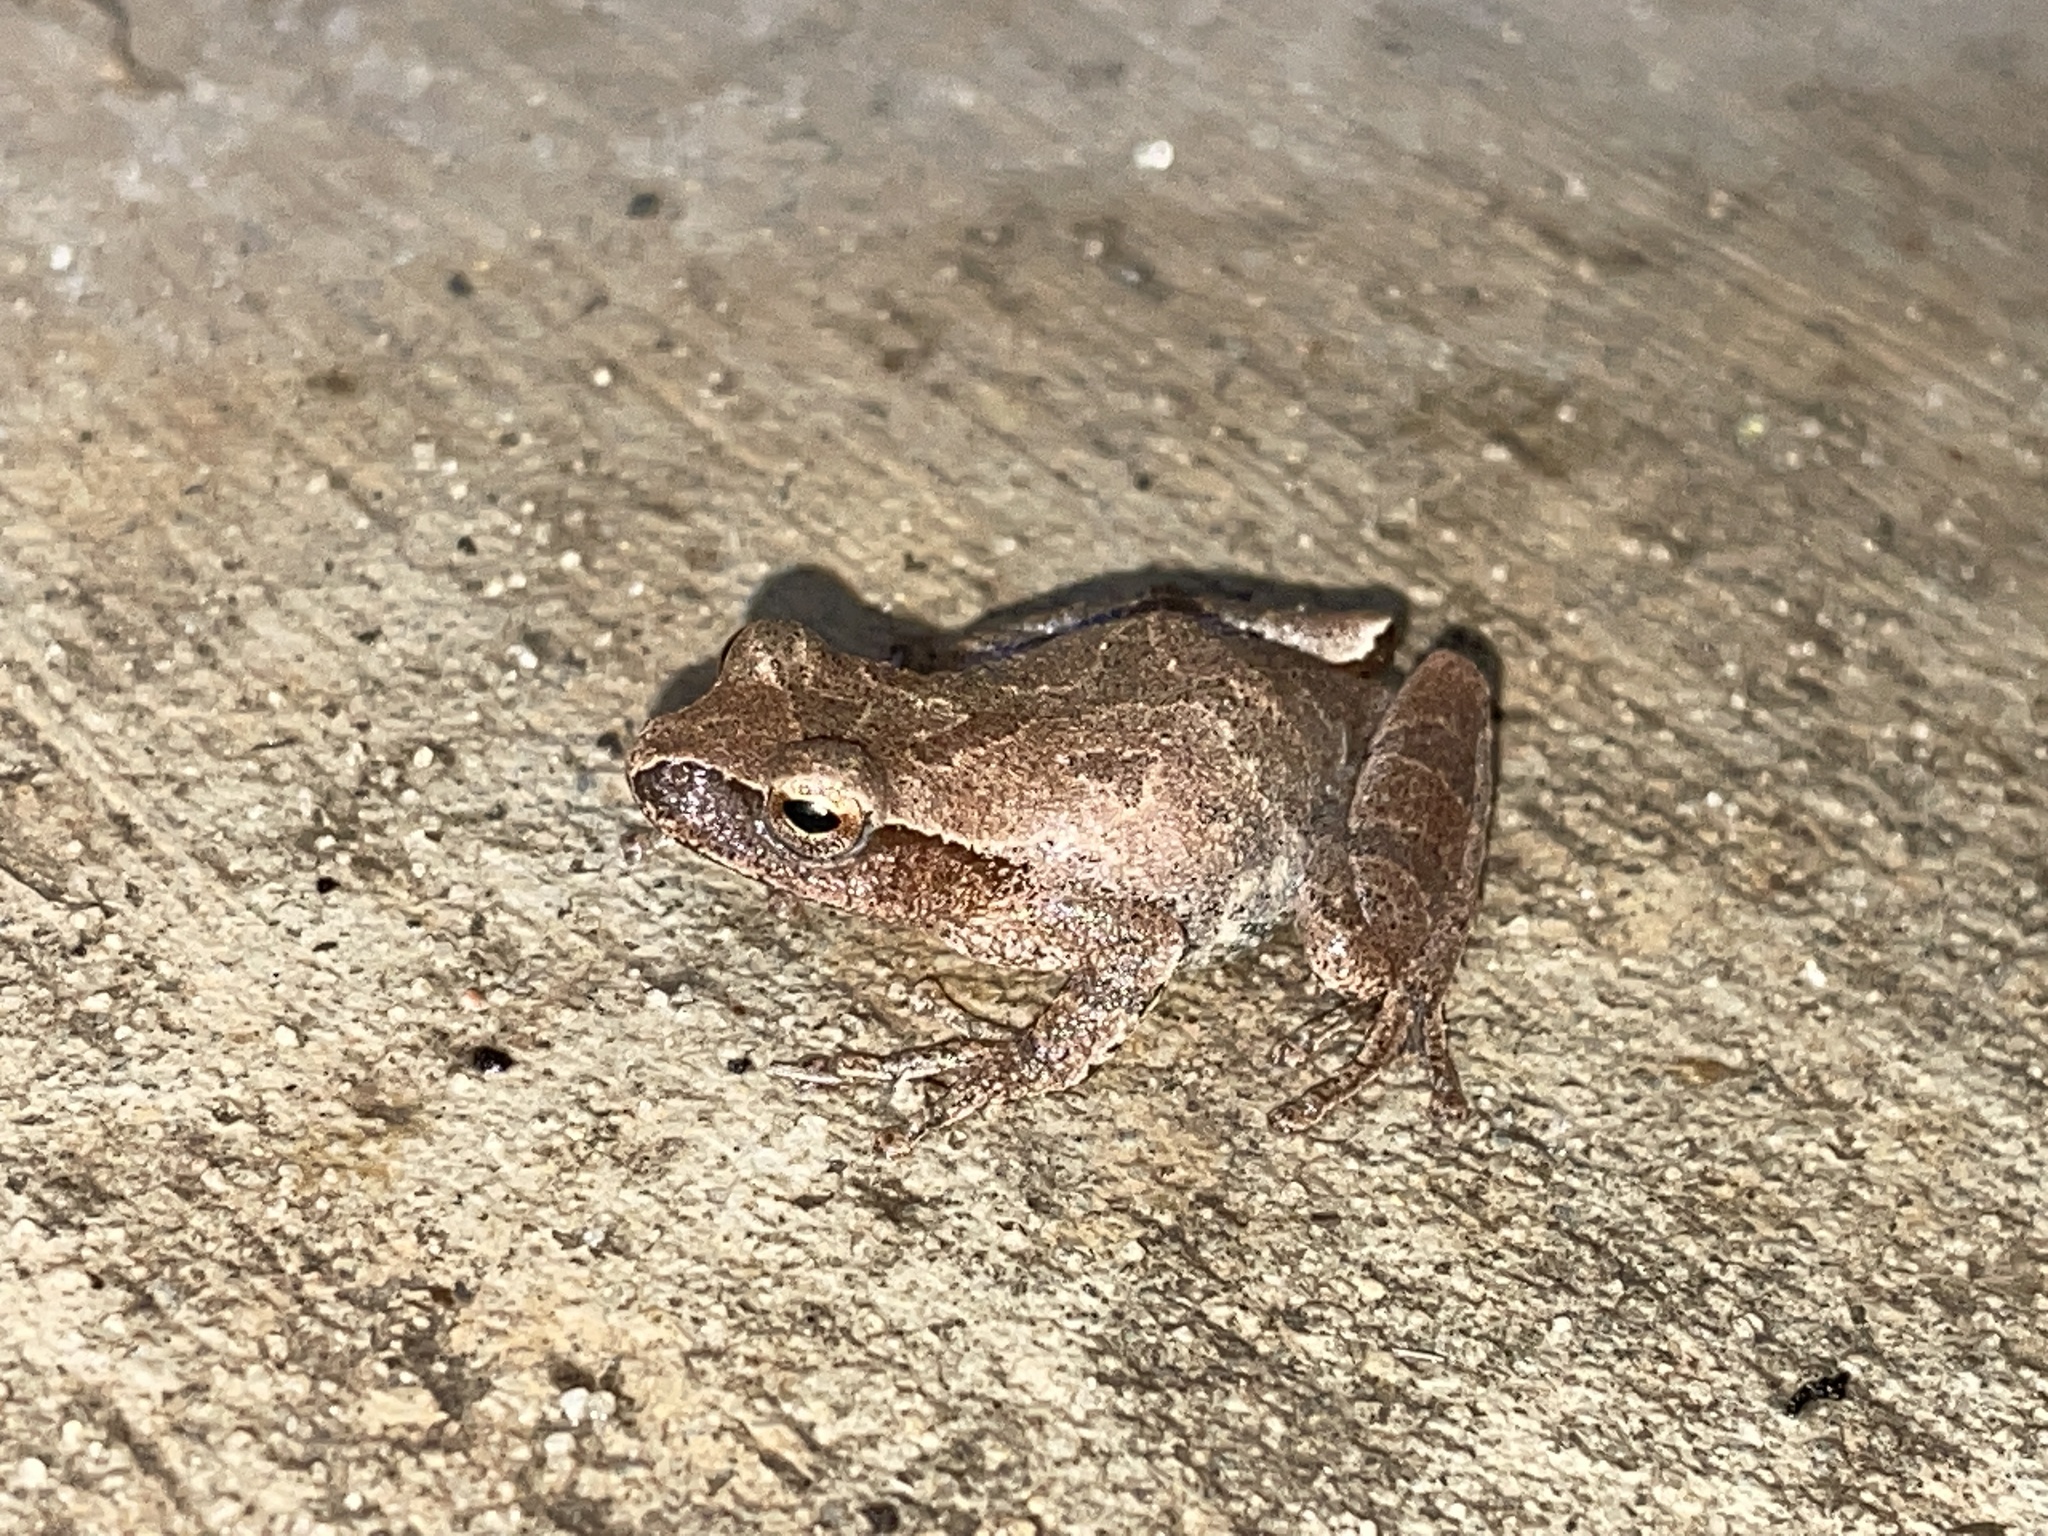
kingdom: Animalia
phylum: Chordata
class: Amphibia
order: Anura
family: Hylidae
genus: Pseudacris
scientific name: Pseudacris crucifer
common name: Spring peeper
